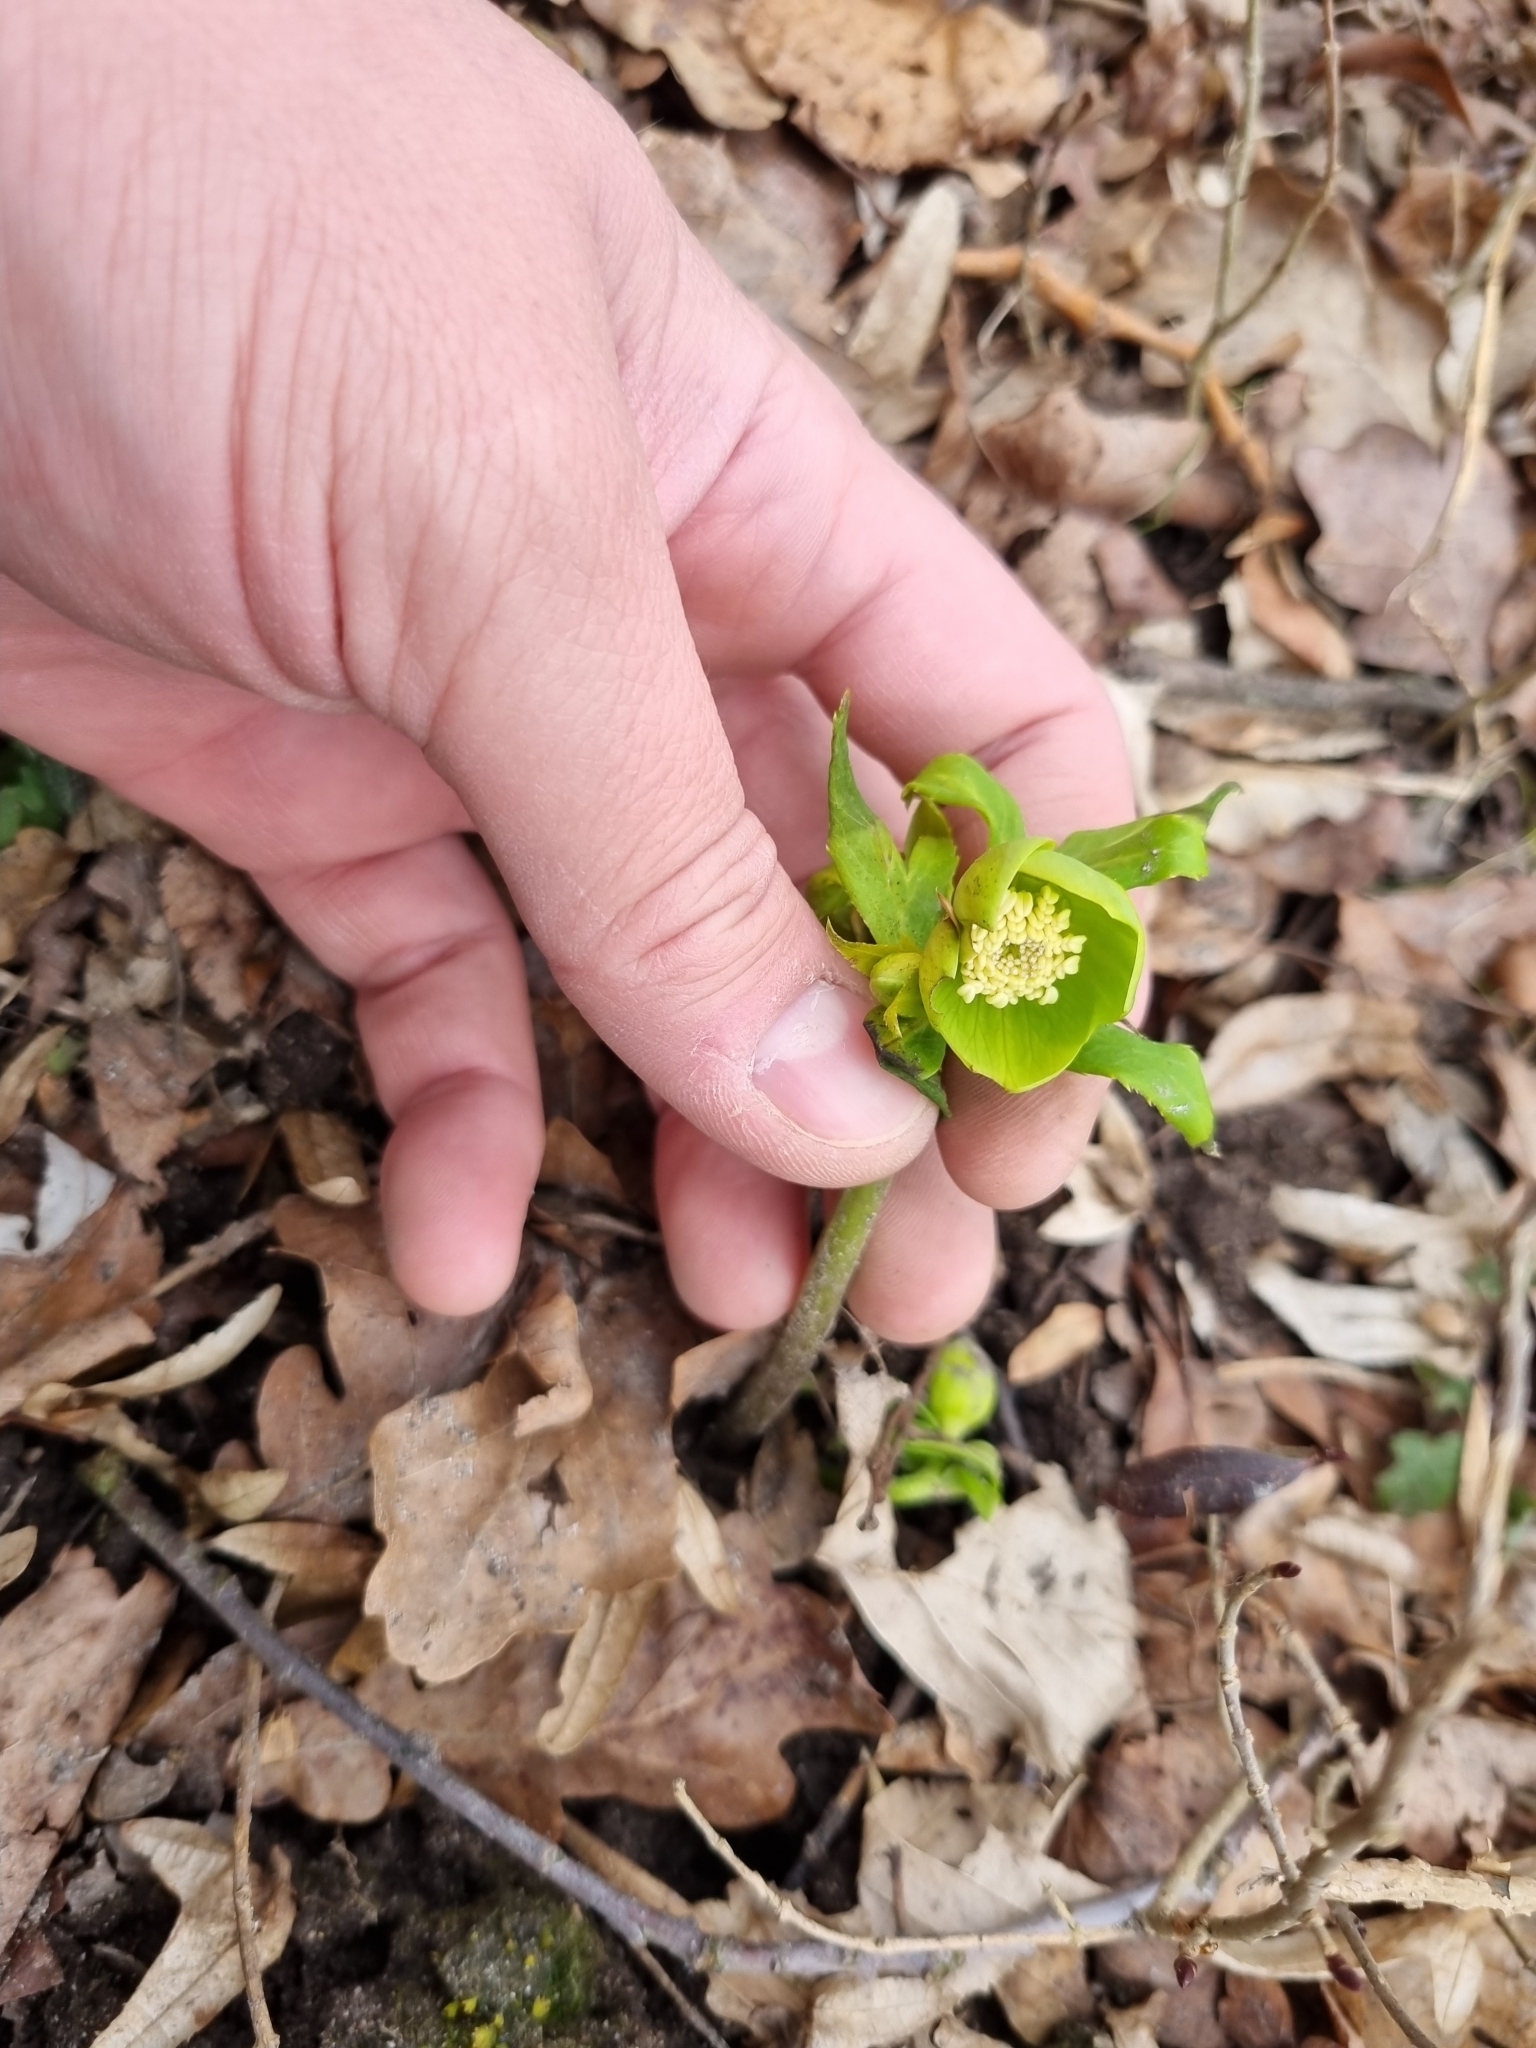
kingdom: Plantae
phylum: Tracheophyta
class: Magnoliopsida
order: Ranunculales
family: Ranunculaceae
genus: Helleborus
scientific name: Helleborus odorus
